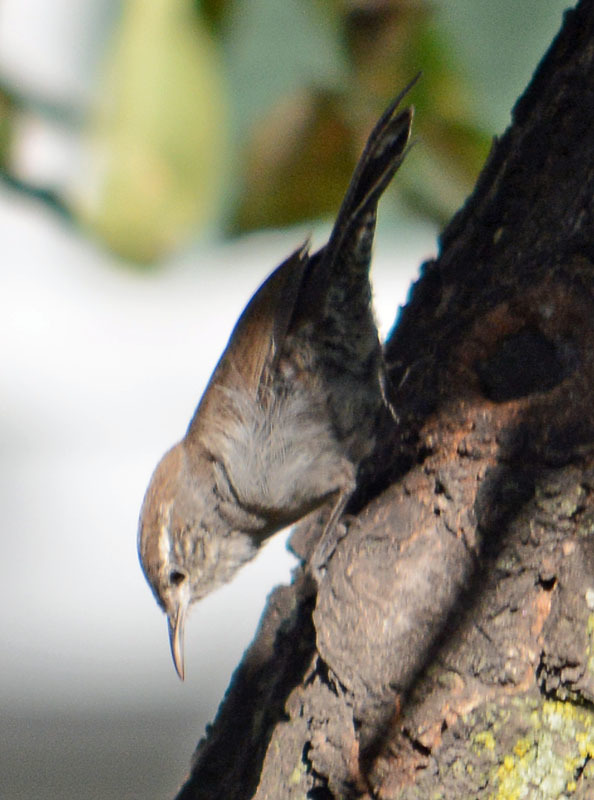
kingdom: Animalia
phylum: Chordata
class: Aves
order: Passeriformes
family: Troglodytidae
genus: Thryomanes
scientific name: Thryomanes bewickii
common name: Bewick's wren
